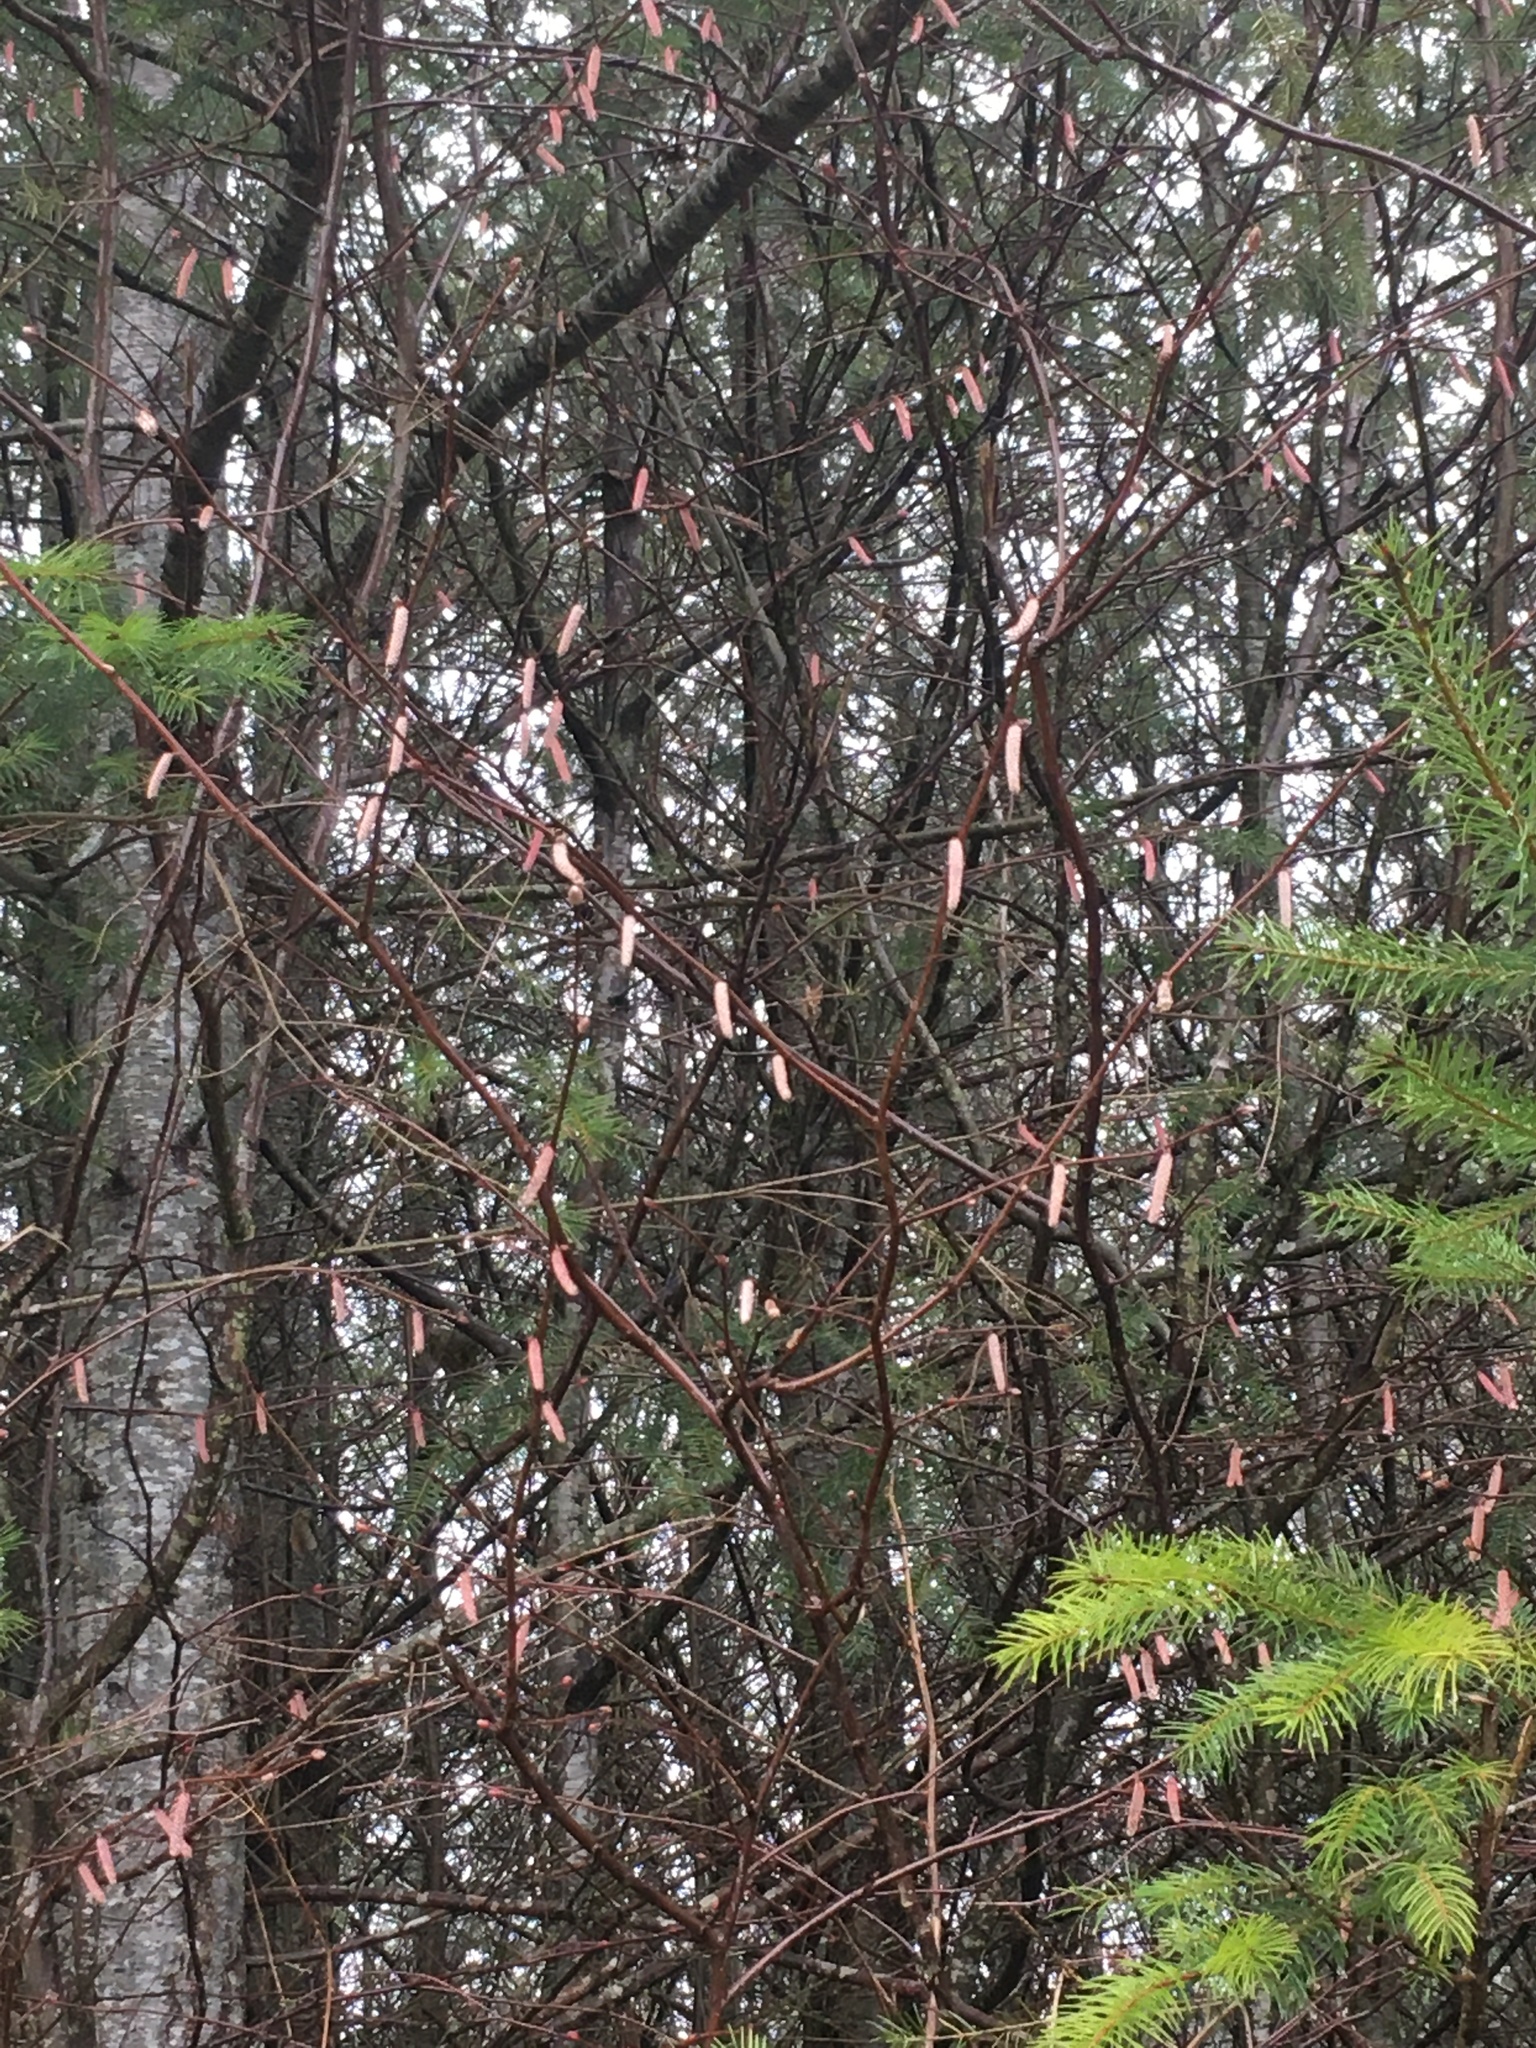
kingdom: Plantae
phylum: Tracheophyta
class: Magnoliopsida
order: Fagales
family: Betulaceae
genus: Corylus
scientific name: Corylus cornuta
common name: Beaked hazel
